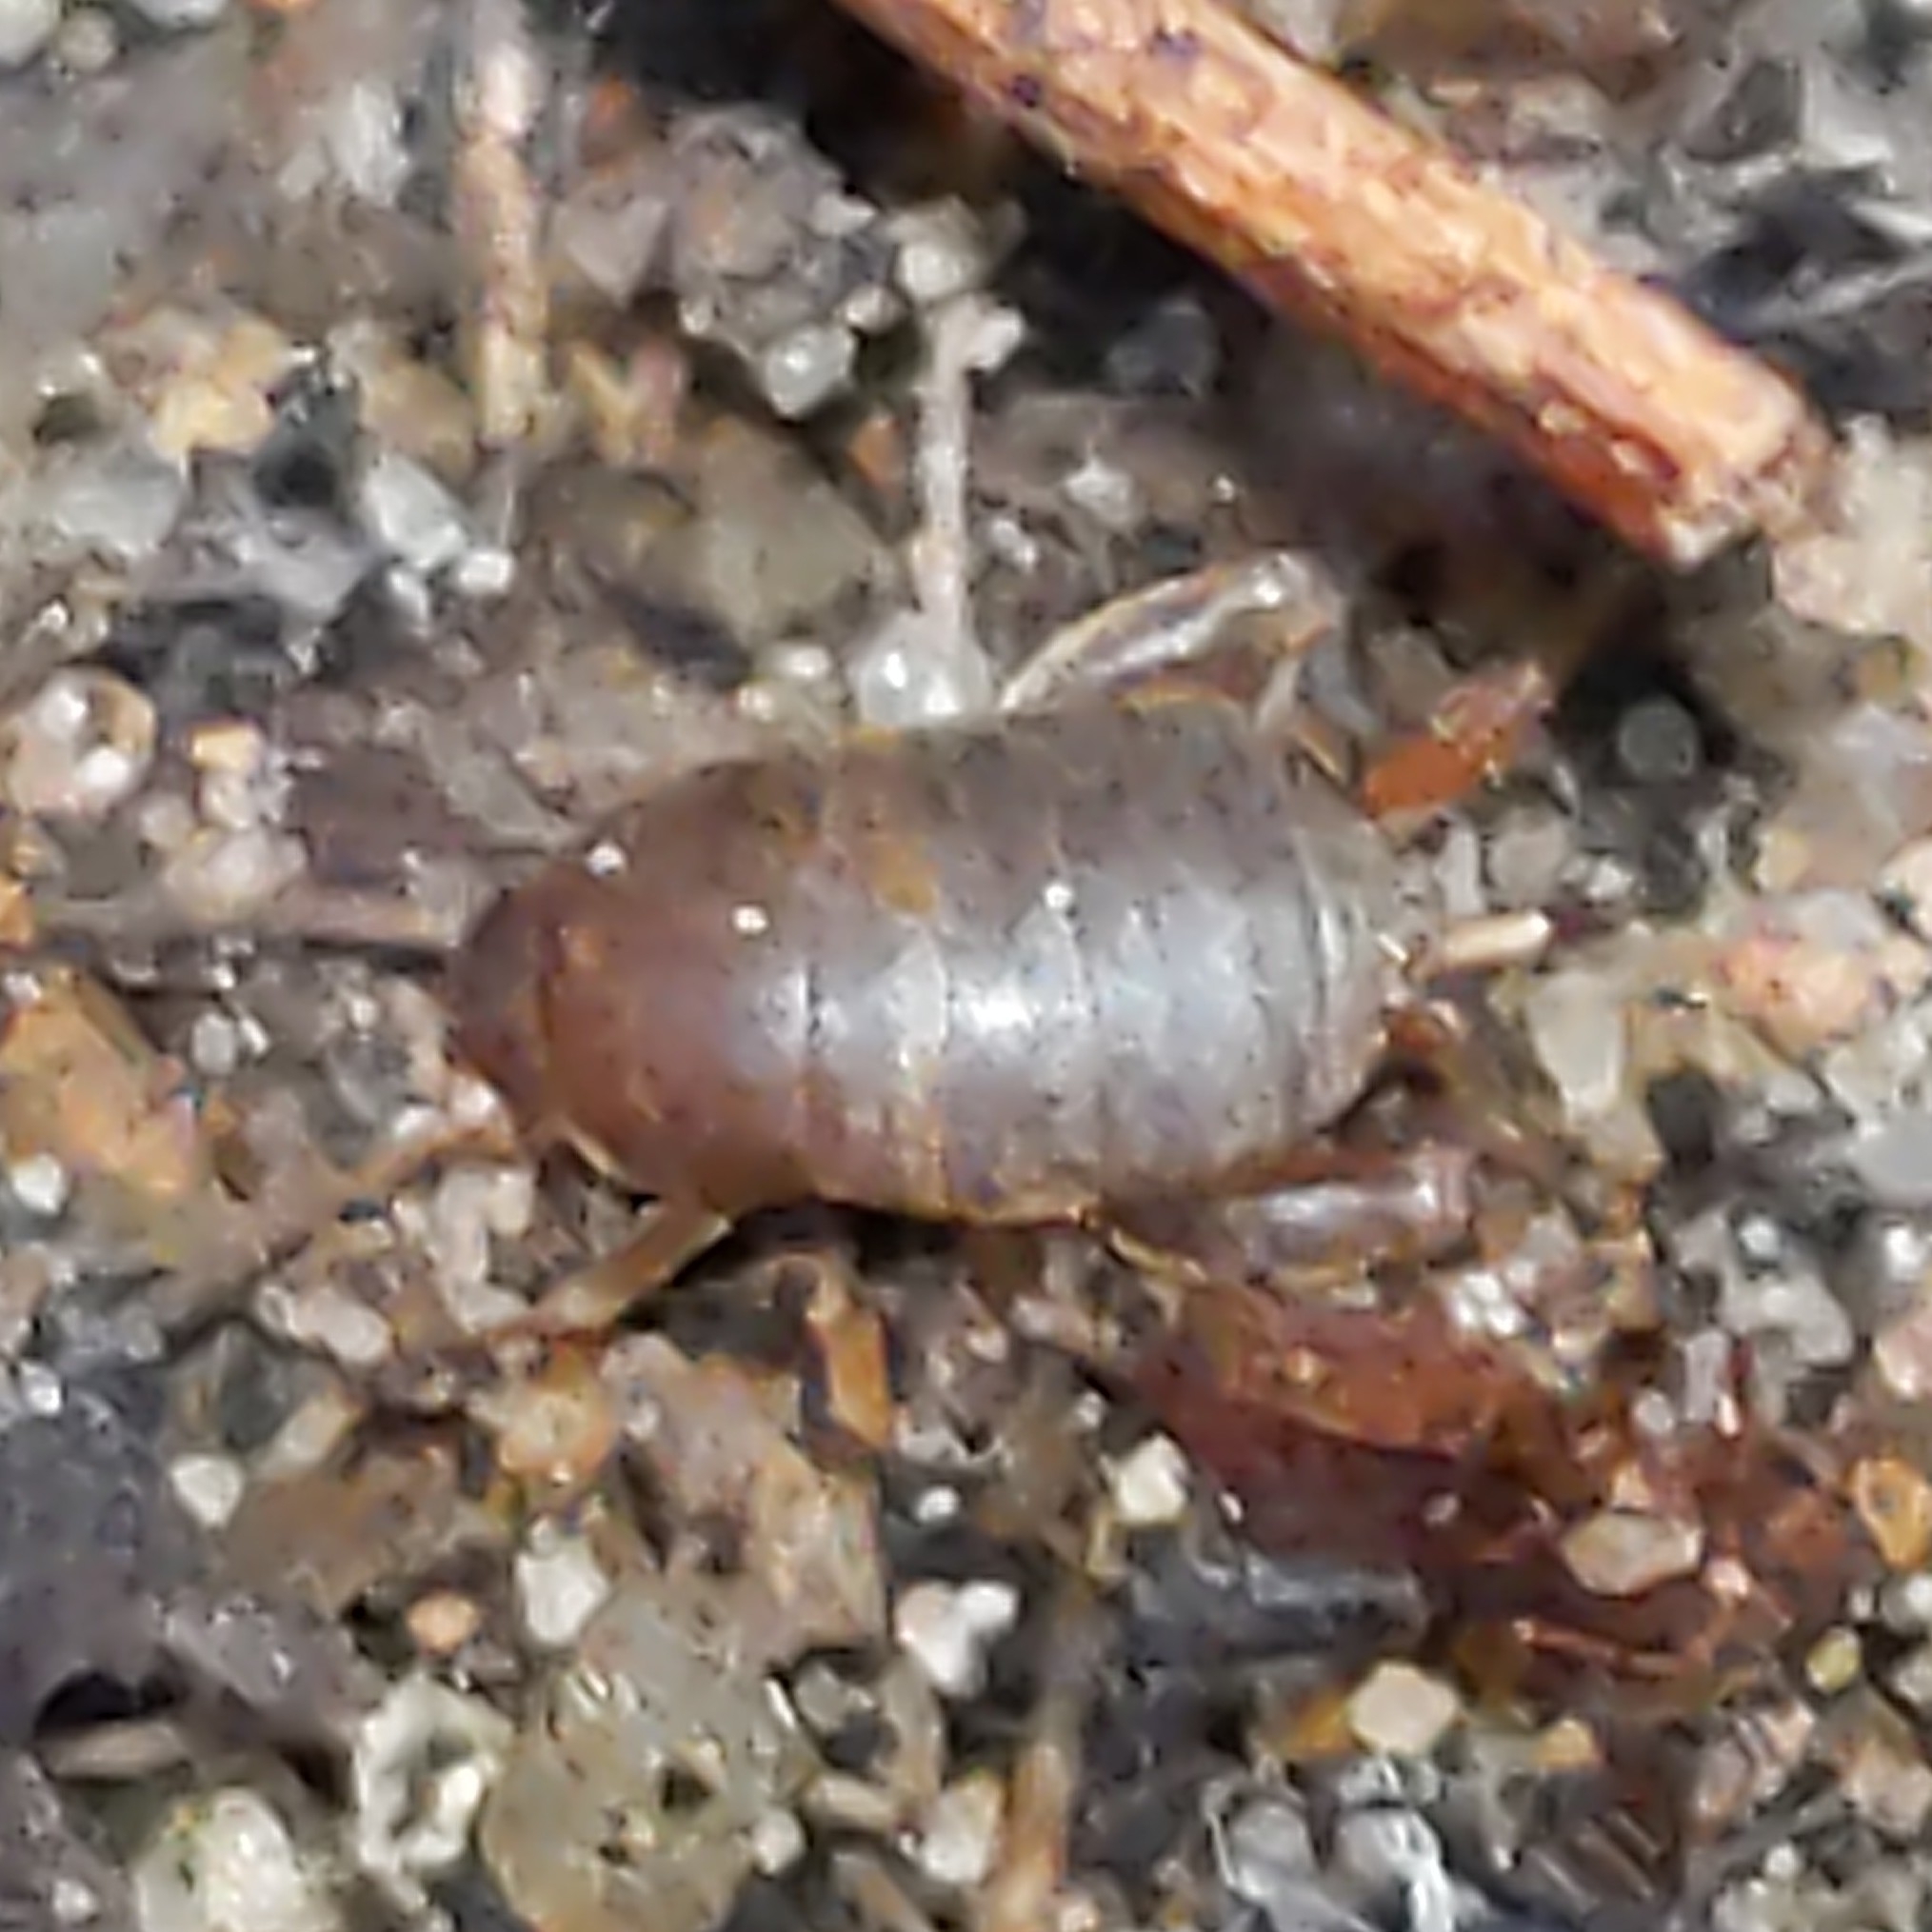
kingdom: Animalia
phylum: Arthropoda
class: Insecta
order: Orthoptera
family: Myrmecophilidae
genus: Myrmecophilus
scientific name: Myrmecophilus pergandei
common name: Eastern ant cricket
